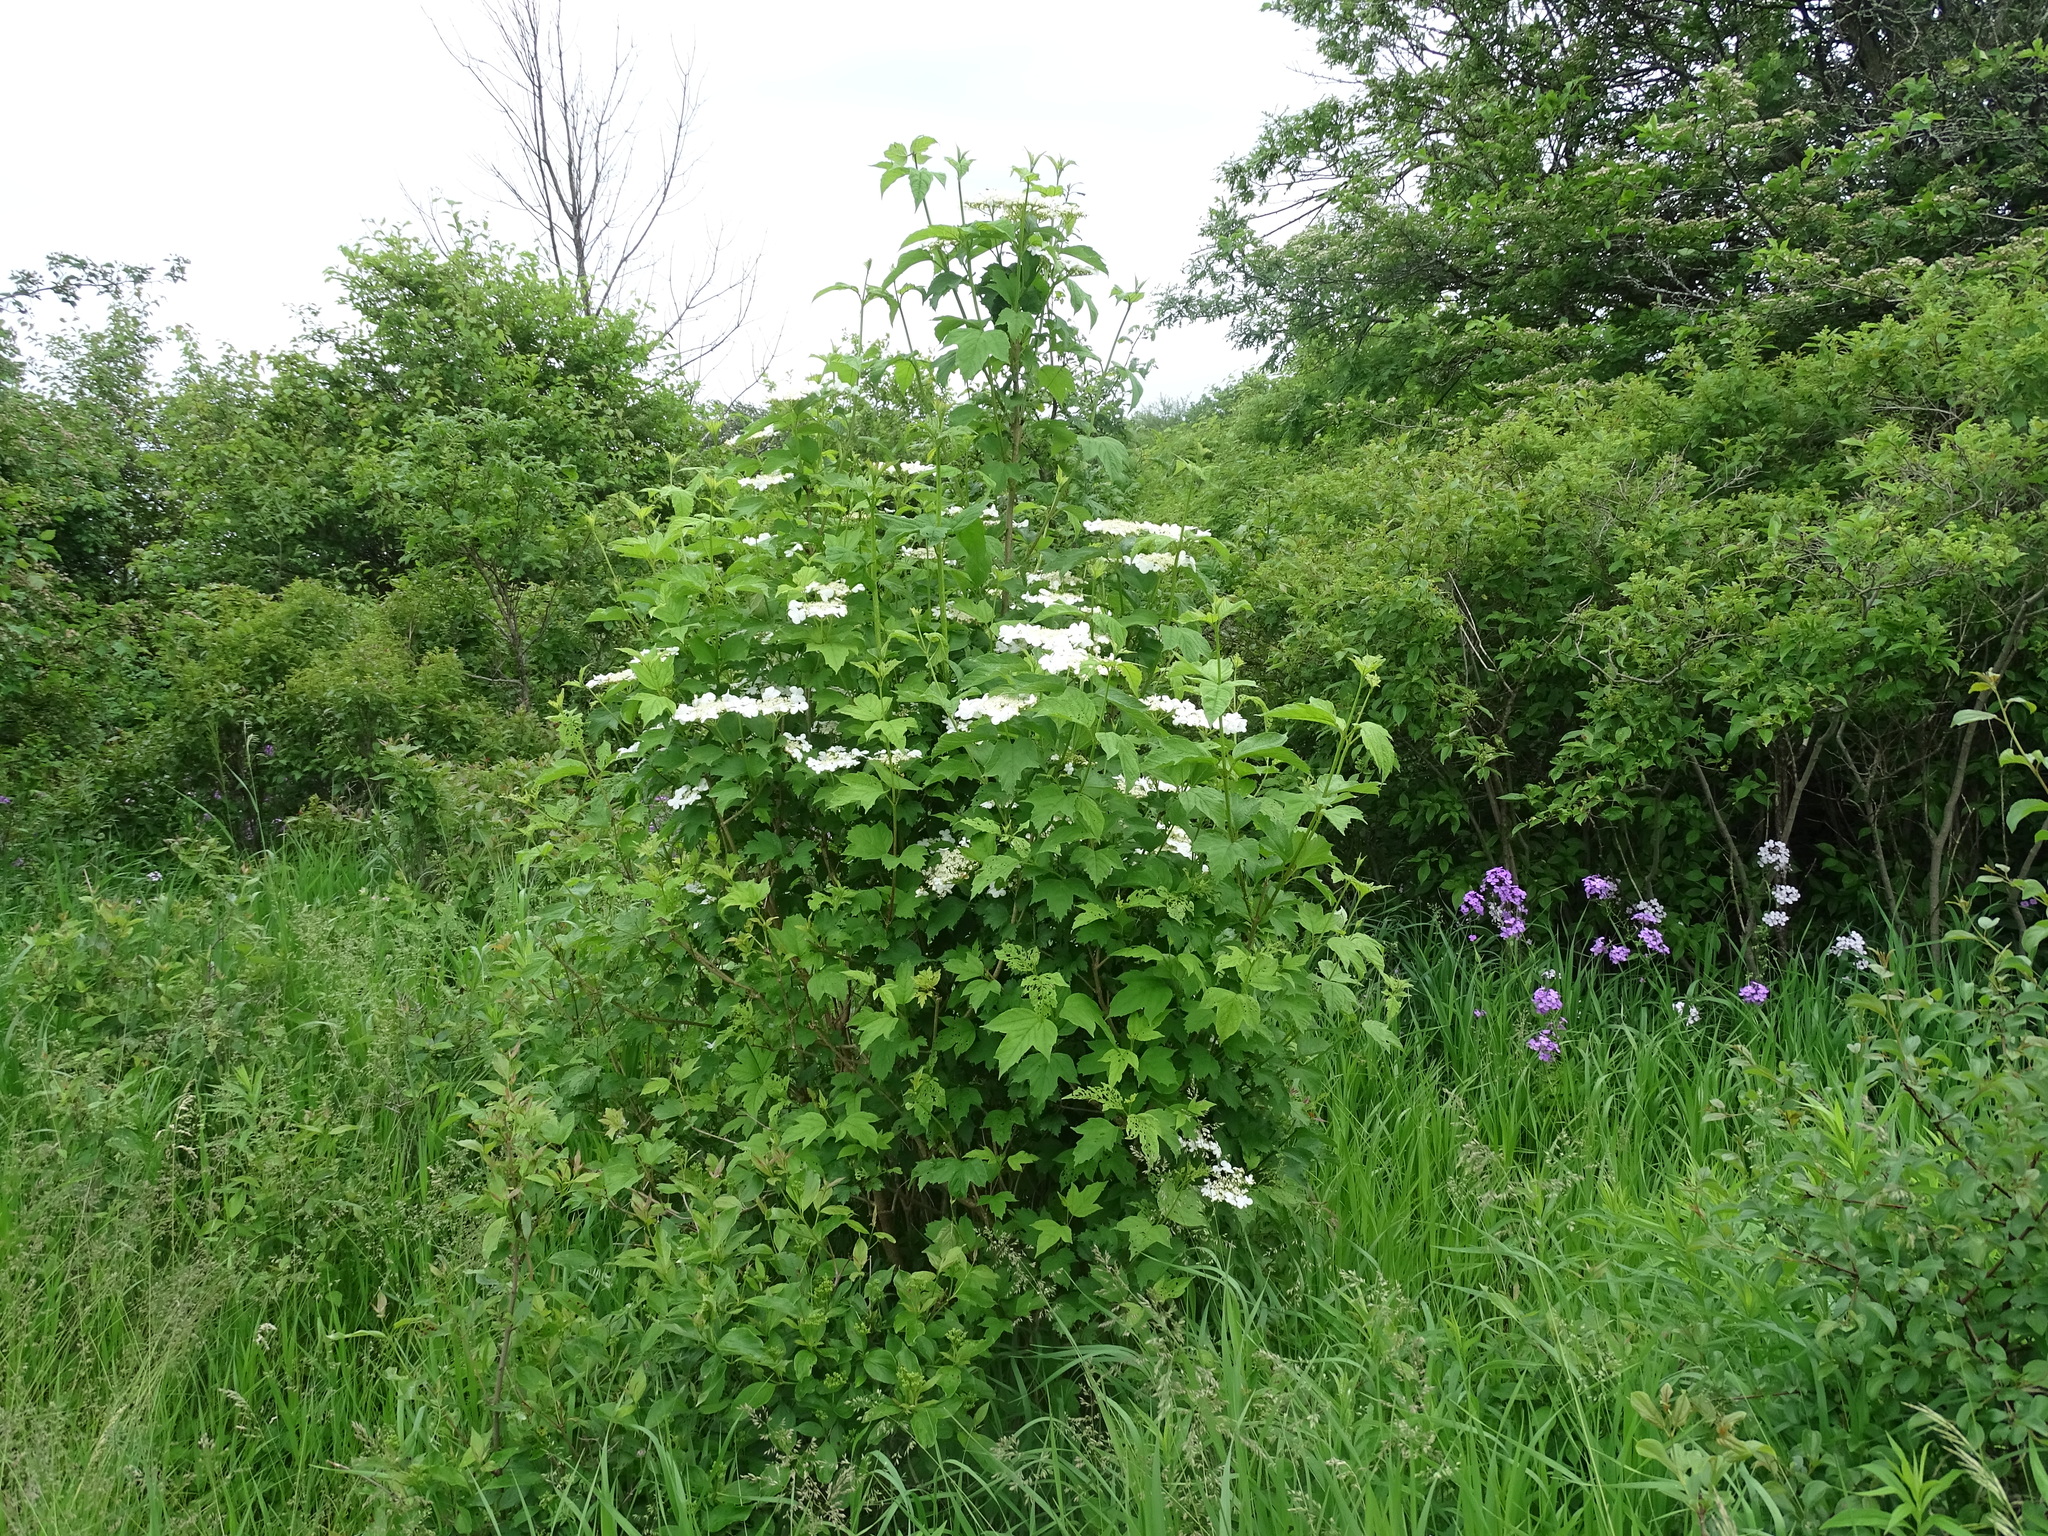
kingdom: Plantae
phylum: Tracheophyta
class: Magnoliopsida
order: Dipsacales
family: Viburnaceae
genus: Viburnum
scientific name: Viburnum opulus
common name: Guelder-rose
